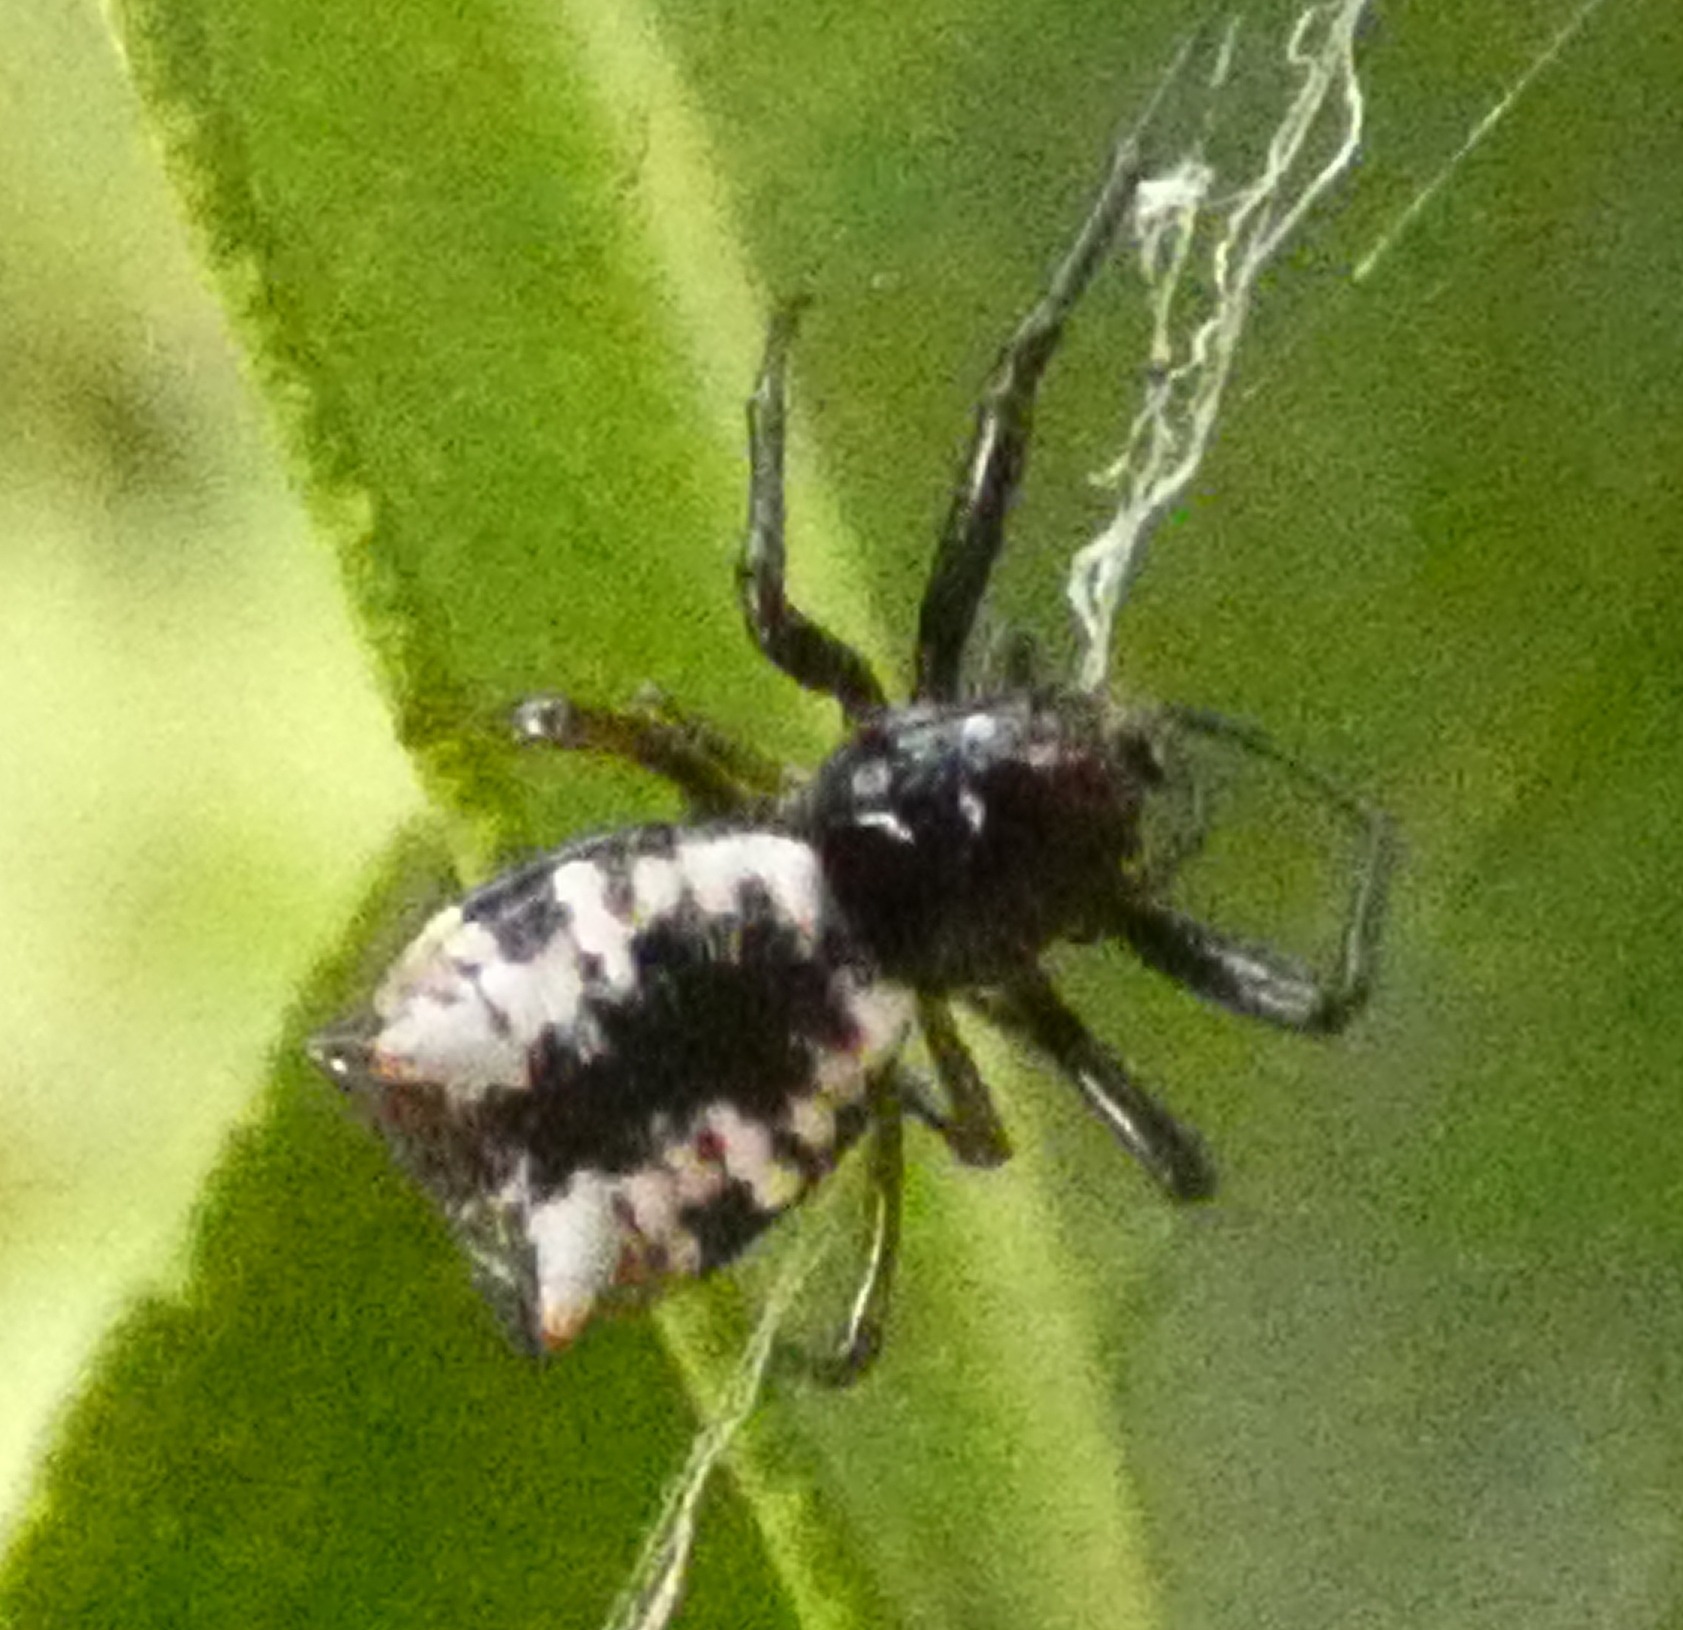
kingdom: Animalia
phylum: Arthropoda
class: Arachnida
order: Araneae
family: Araneidae
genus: Micrathena
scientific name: Micrathena patruelis
